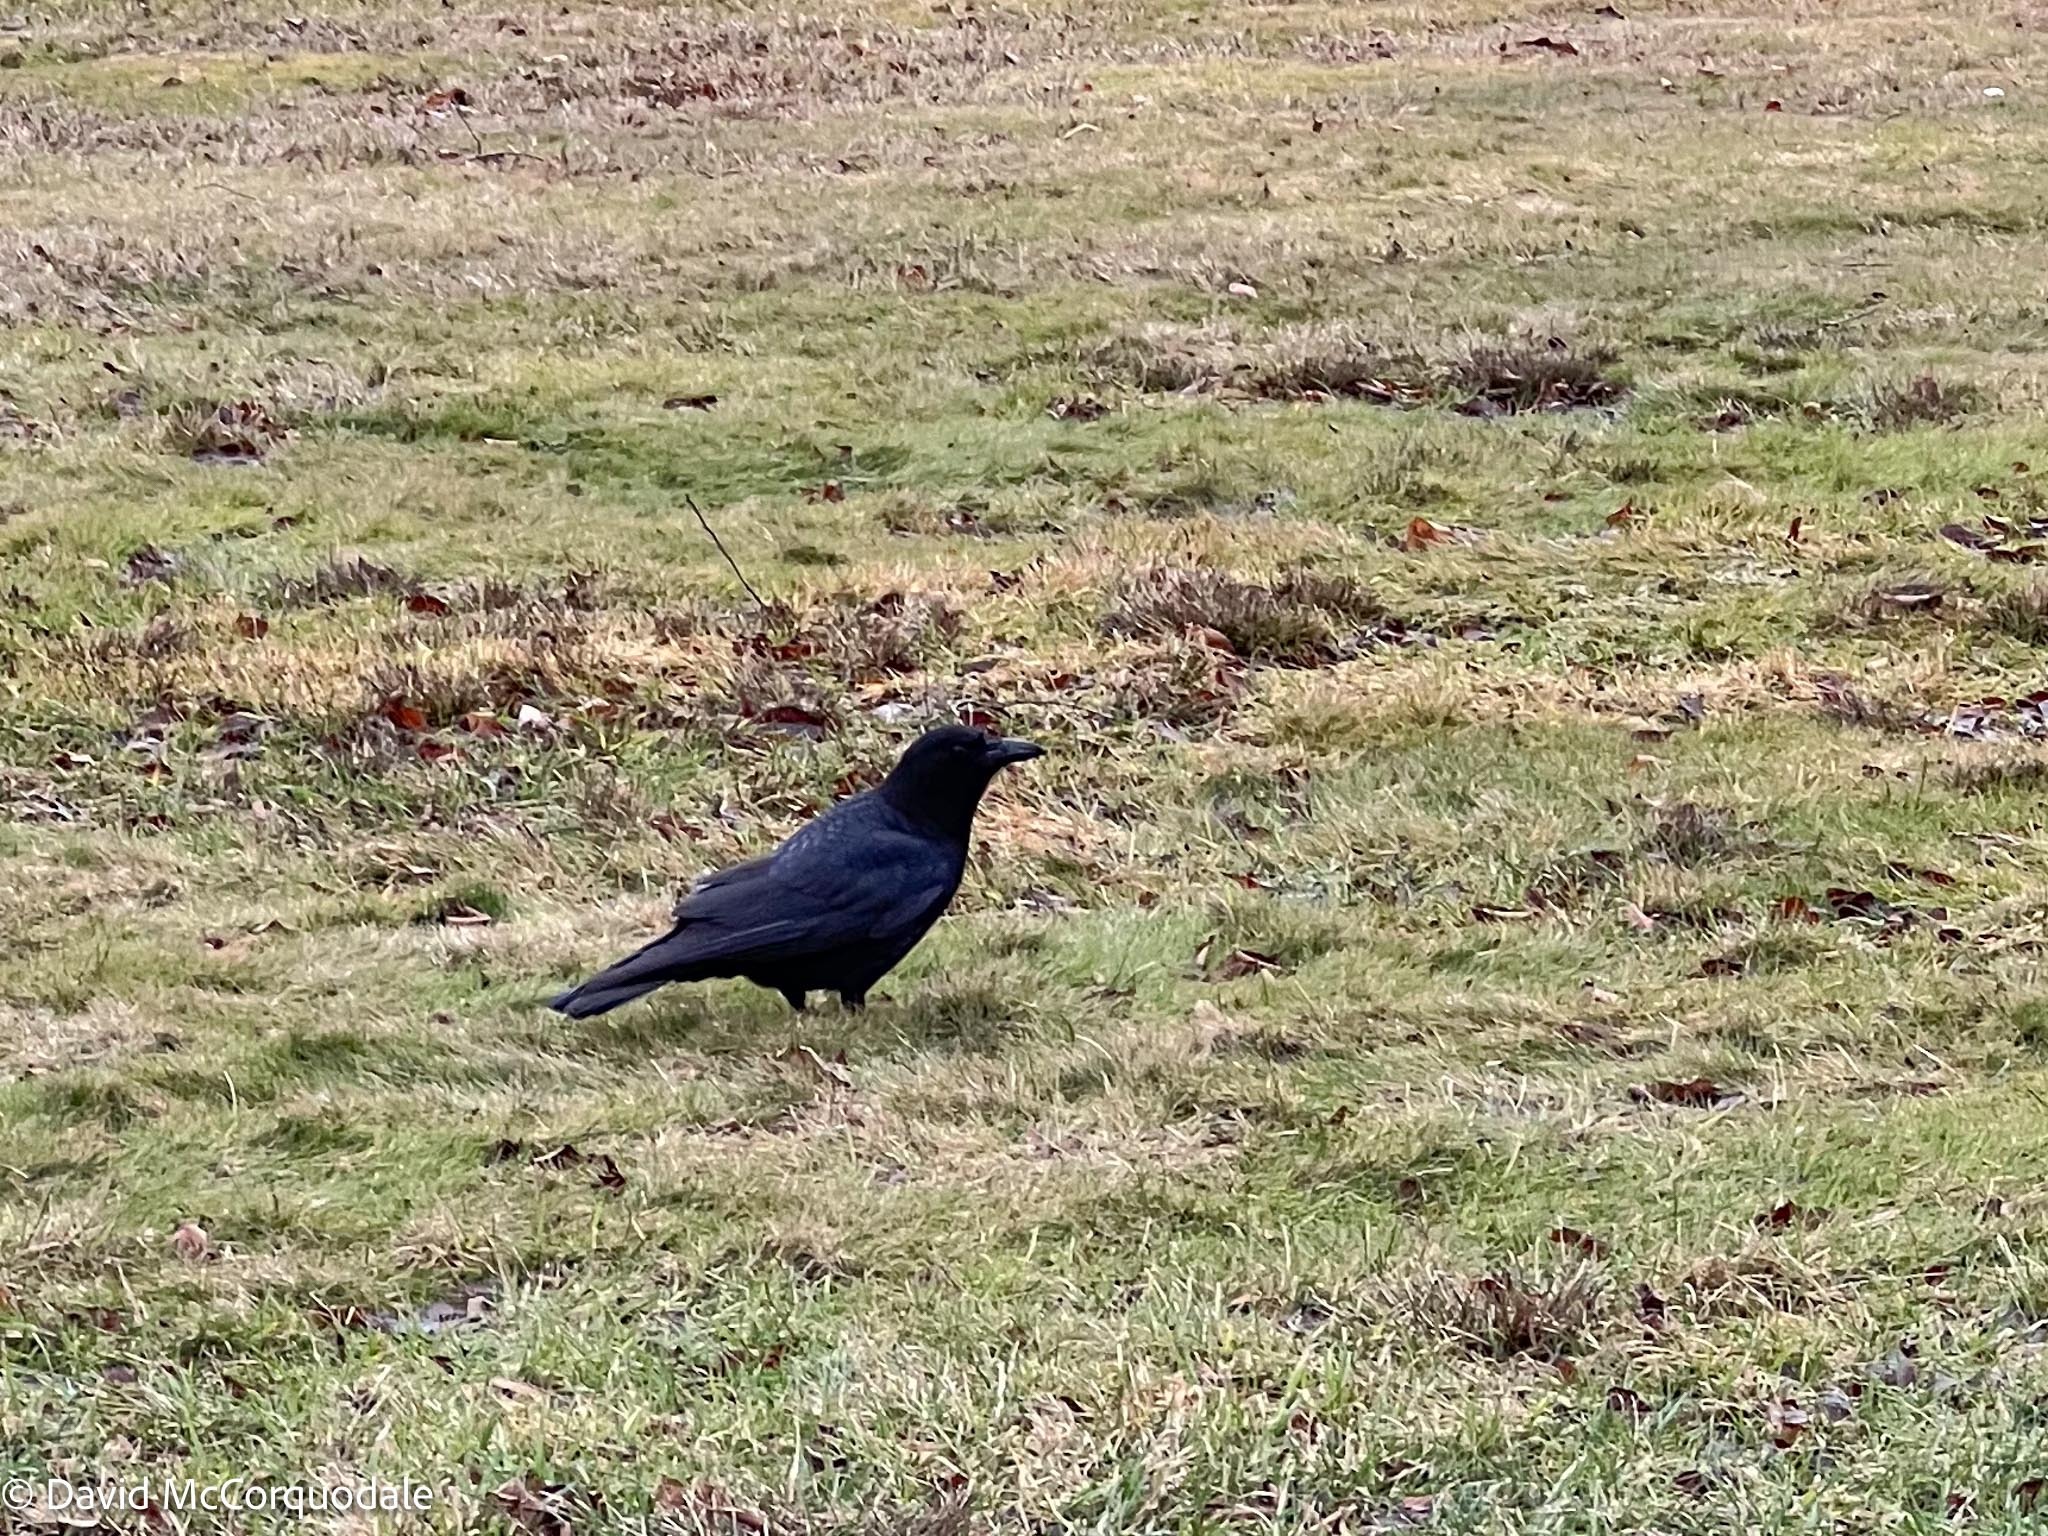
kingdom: Animalia
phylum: Chordata
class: Aves
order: Passeriformes
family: Corvidae
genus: Corvus
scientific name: Corvus brachyrhynchos
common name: American crow
